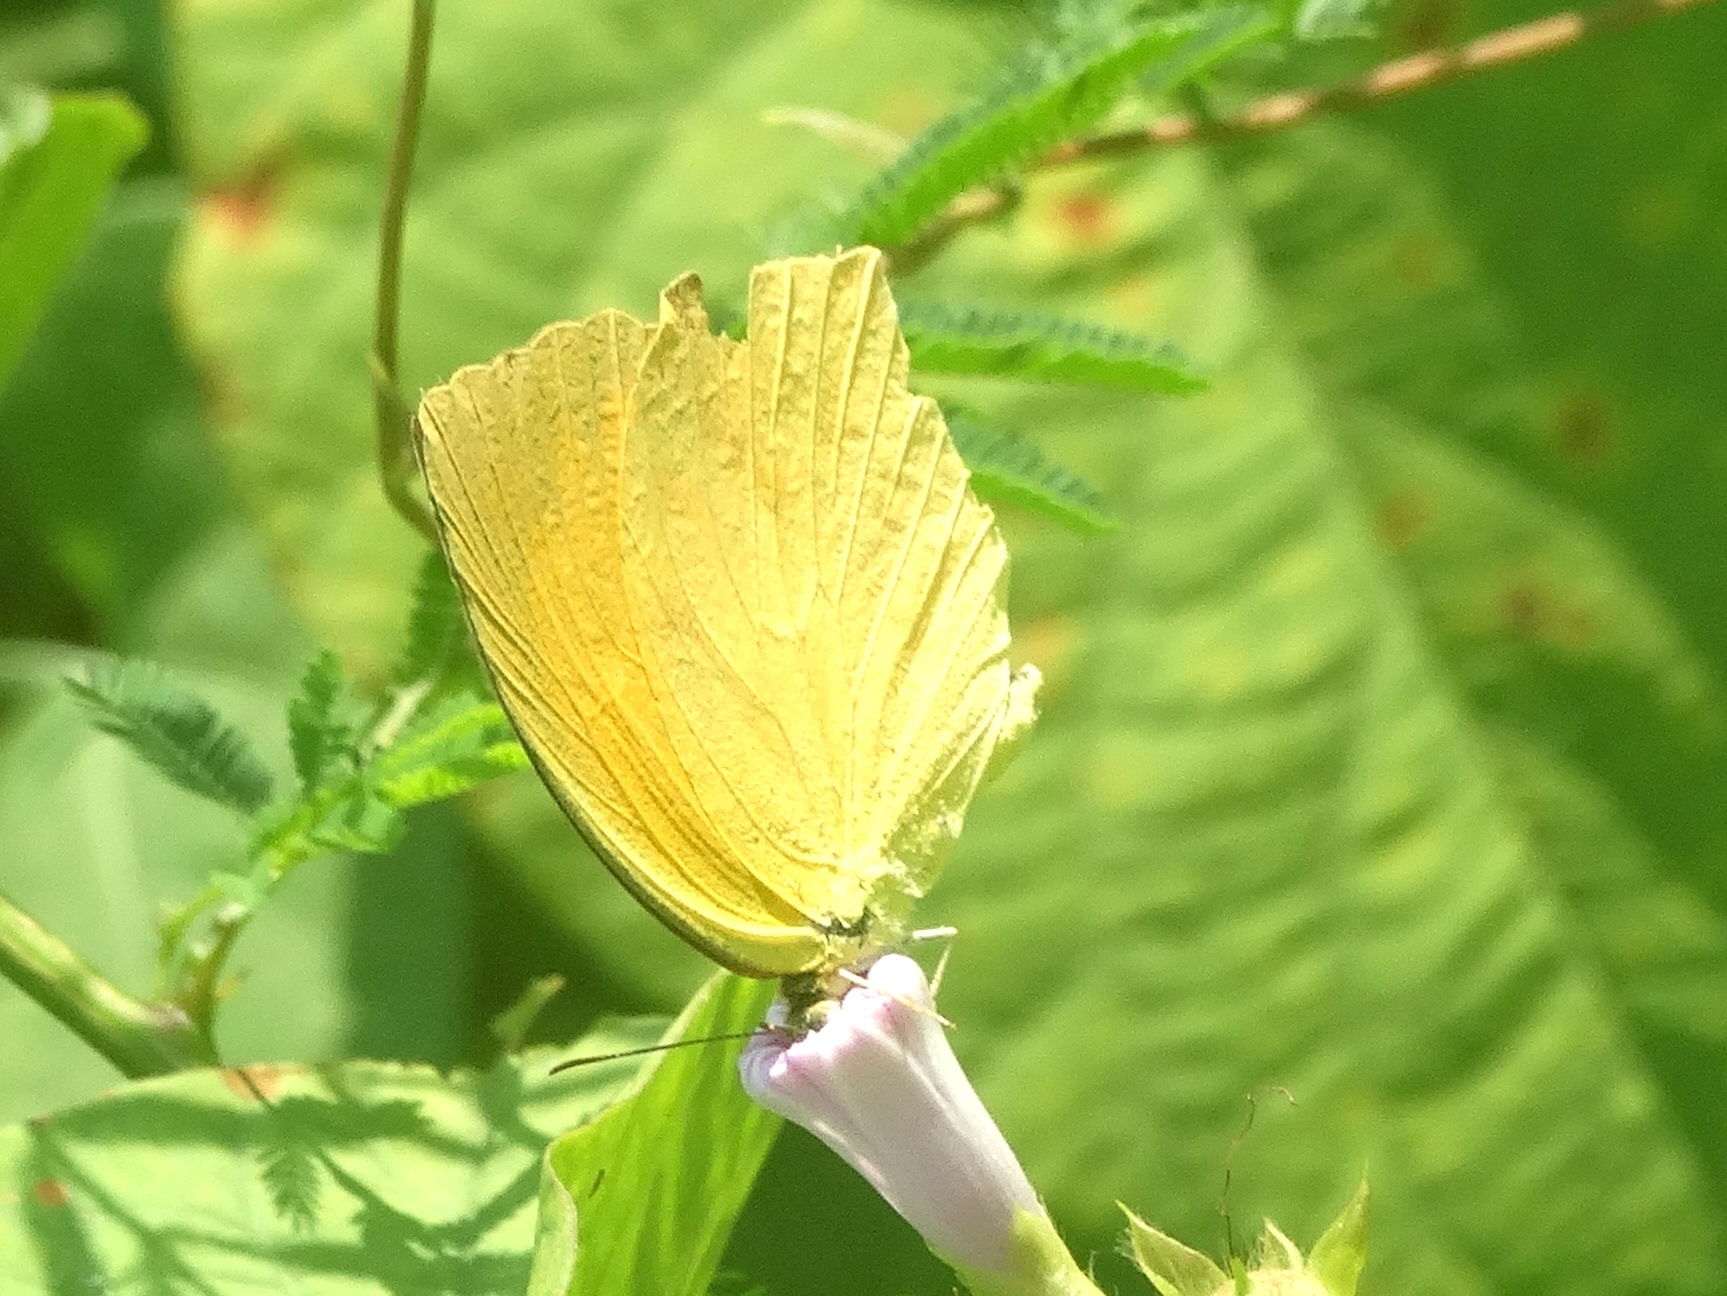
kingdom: Animalia
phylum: Arthropoda
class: Insecta
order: Lepidoptera
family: Pieridae
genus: Pyrisitia
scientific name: Pyrisitia proterpia
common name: Tailed orange
